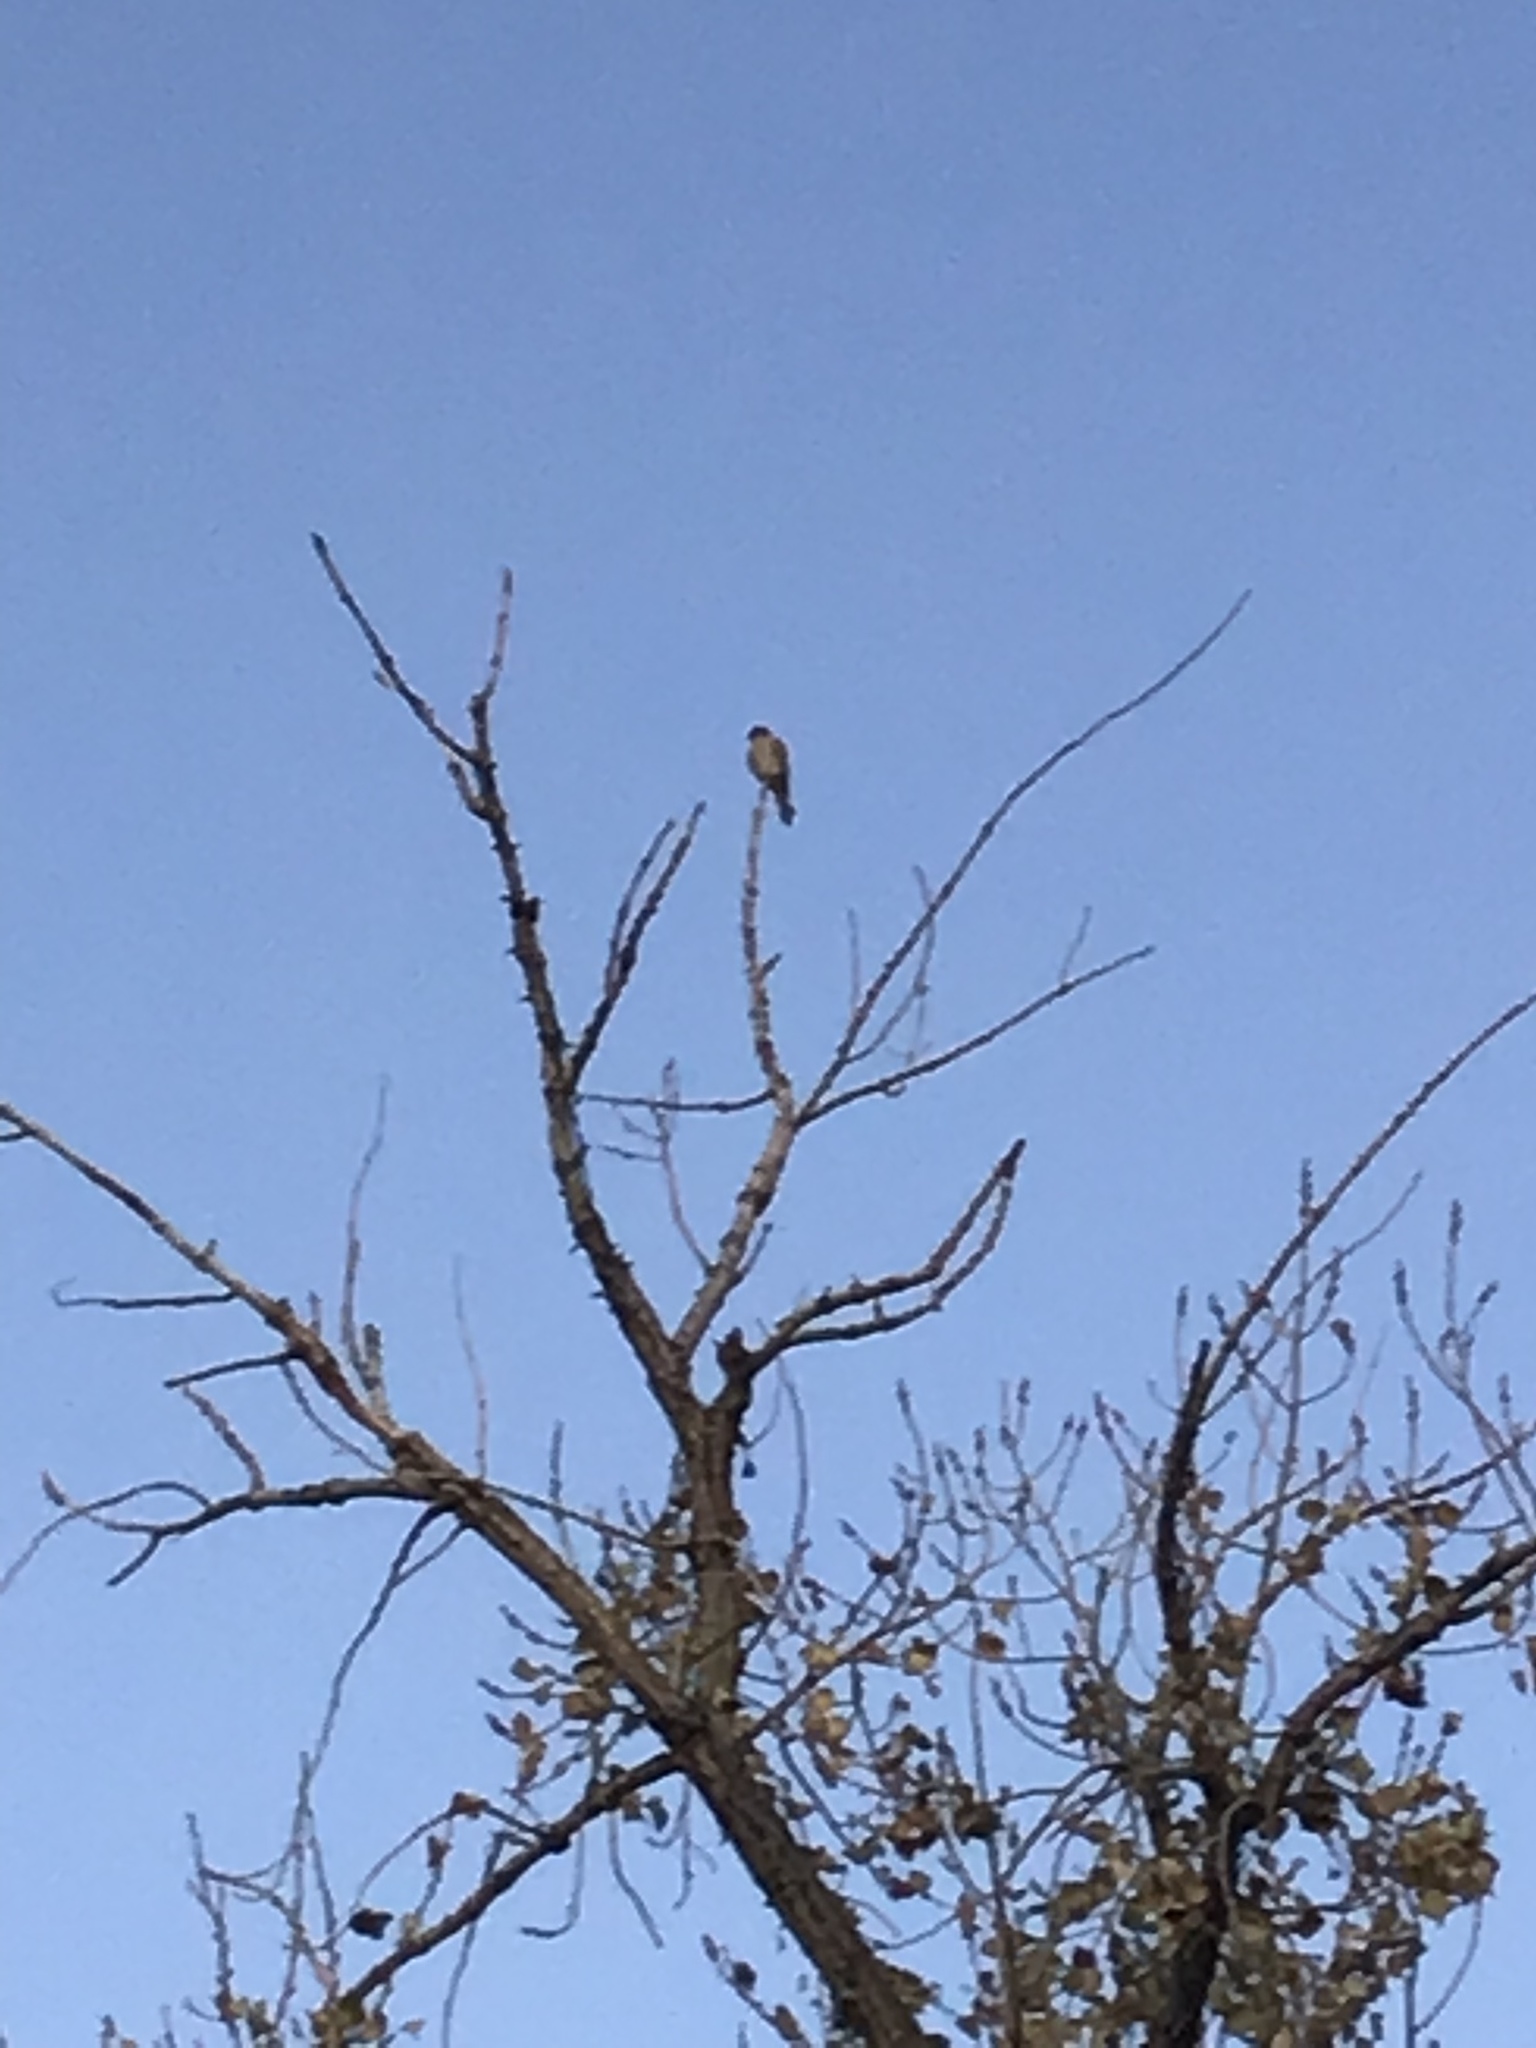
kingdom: Animalia
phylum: Chordata
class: Aves
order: Falconiformes
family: Falconidae
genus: Falco
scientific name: Falco sparverius
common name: American kestrel
